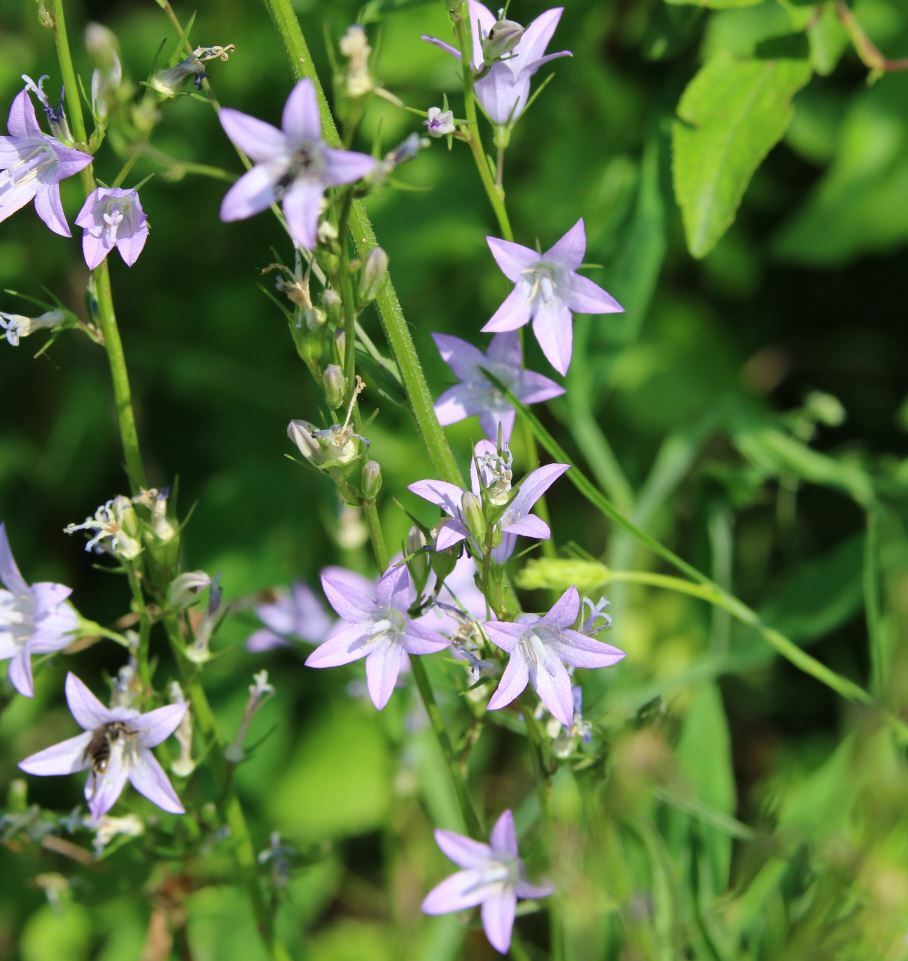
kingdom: Plantae
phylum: Tracheophyta
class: Magnoliopsida
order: Asterales
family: Campanulaceae
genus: Campanula
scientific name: Campanula rapunculus
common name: Rampion bellflower
